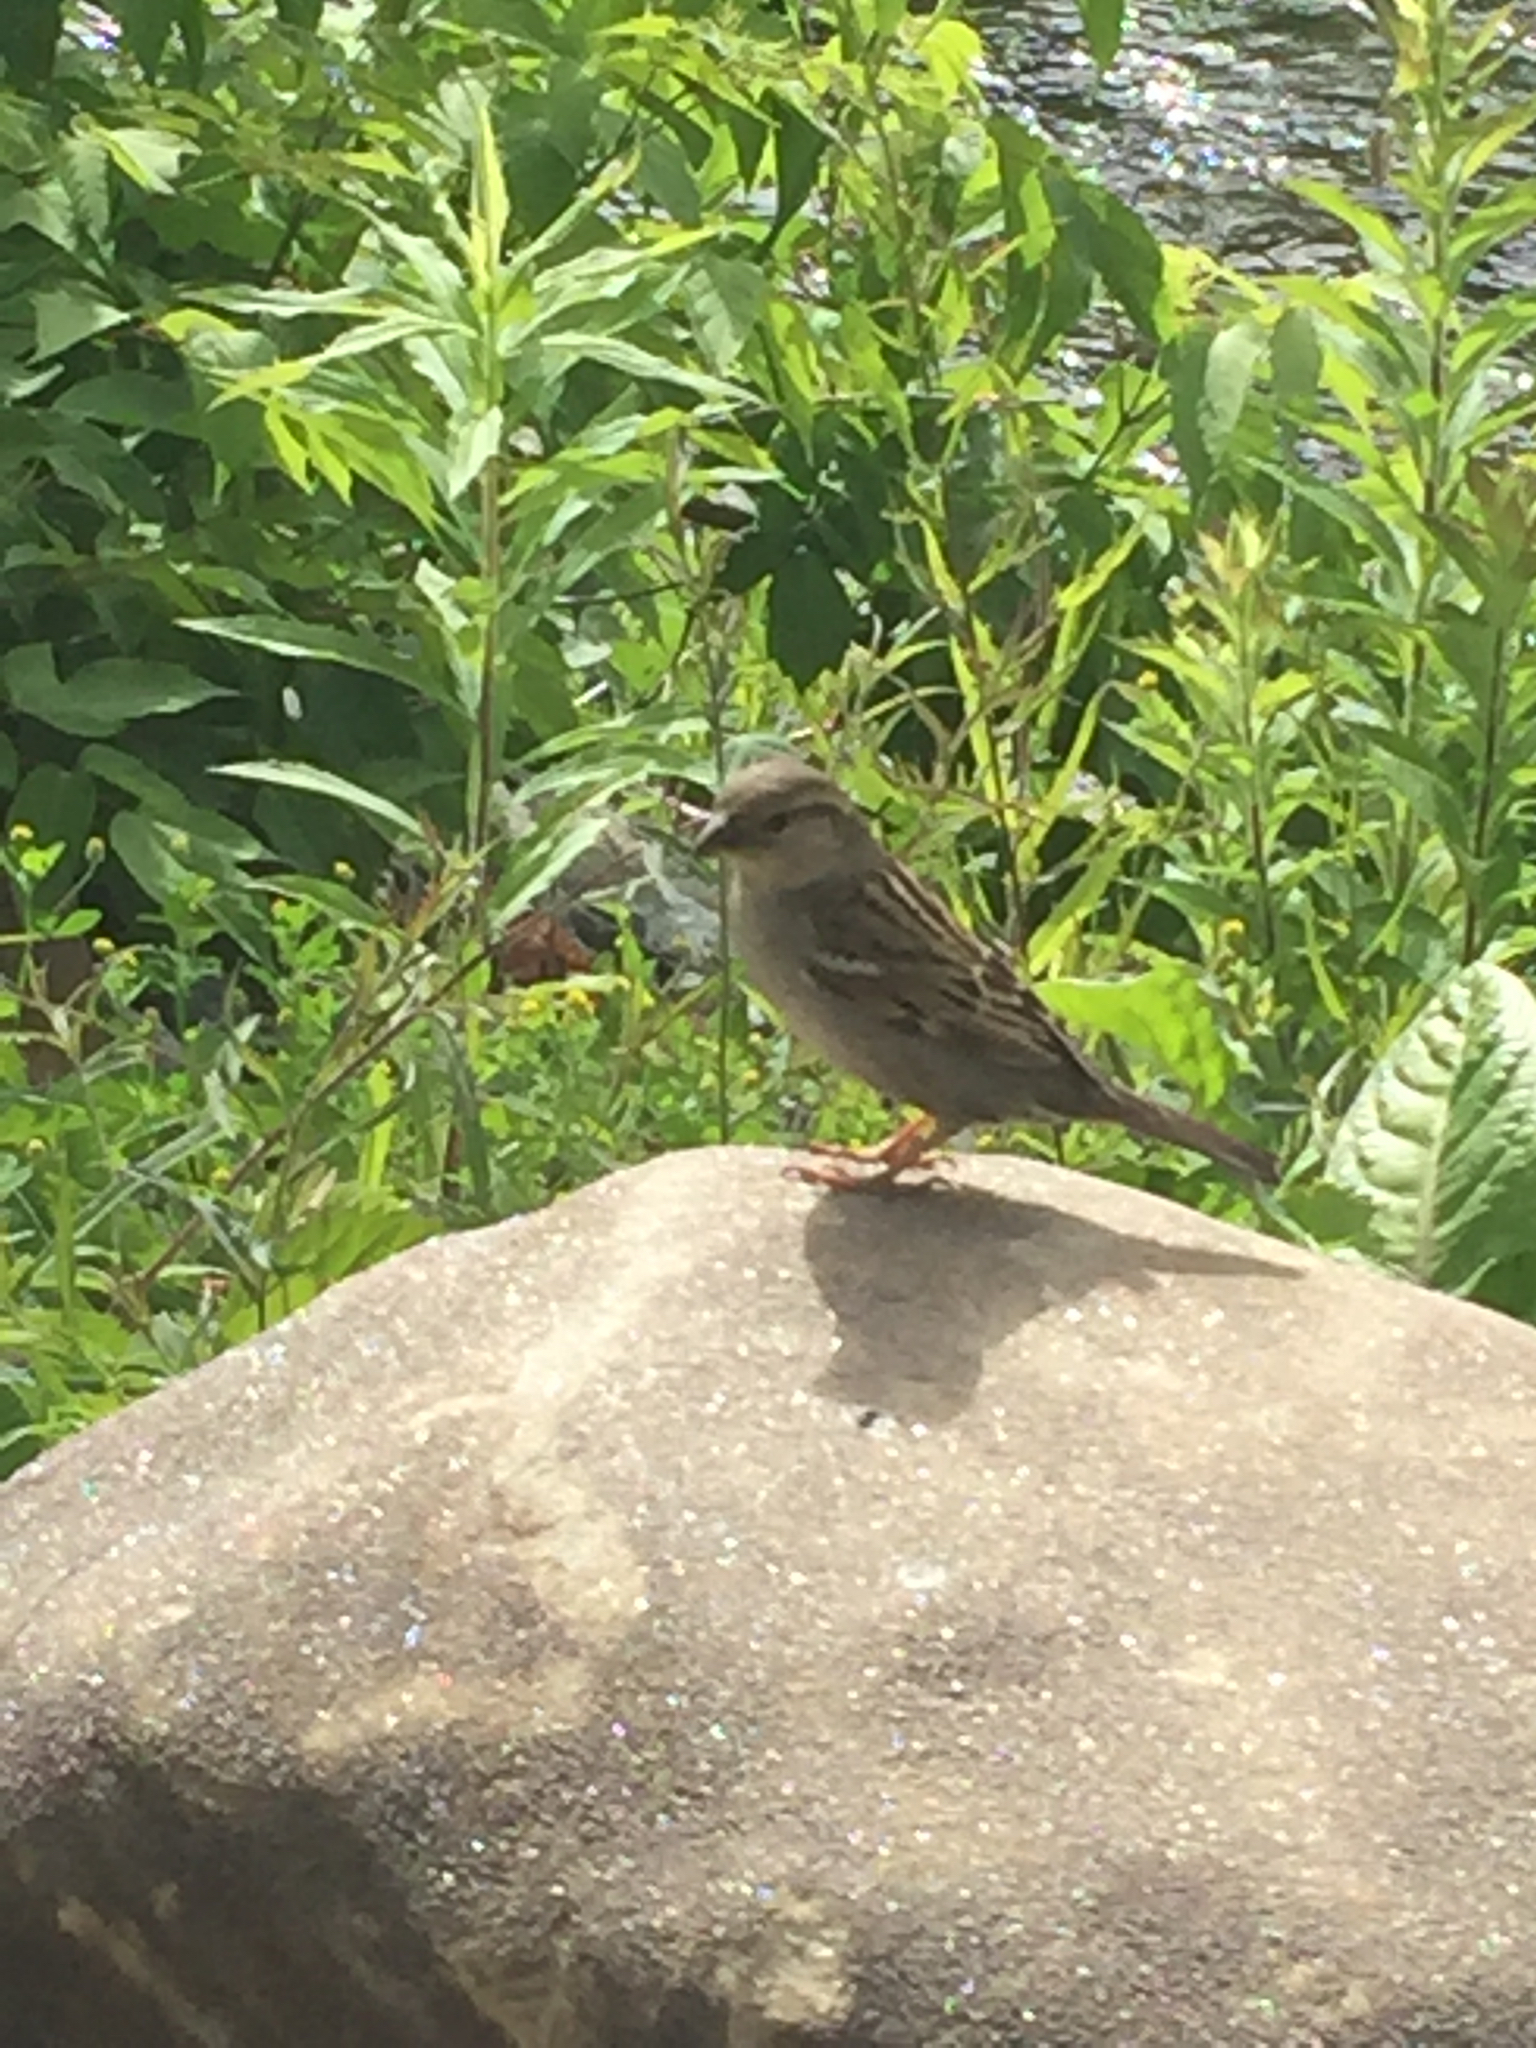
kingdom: Animalia
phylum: Chordata
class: Aves
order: Passeriformes
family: Passeridae
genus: Passer
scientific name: Passer domesticus
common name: House sparrow
